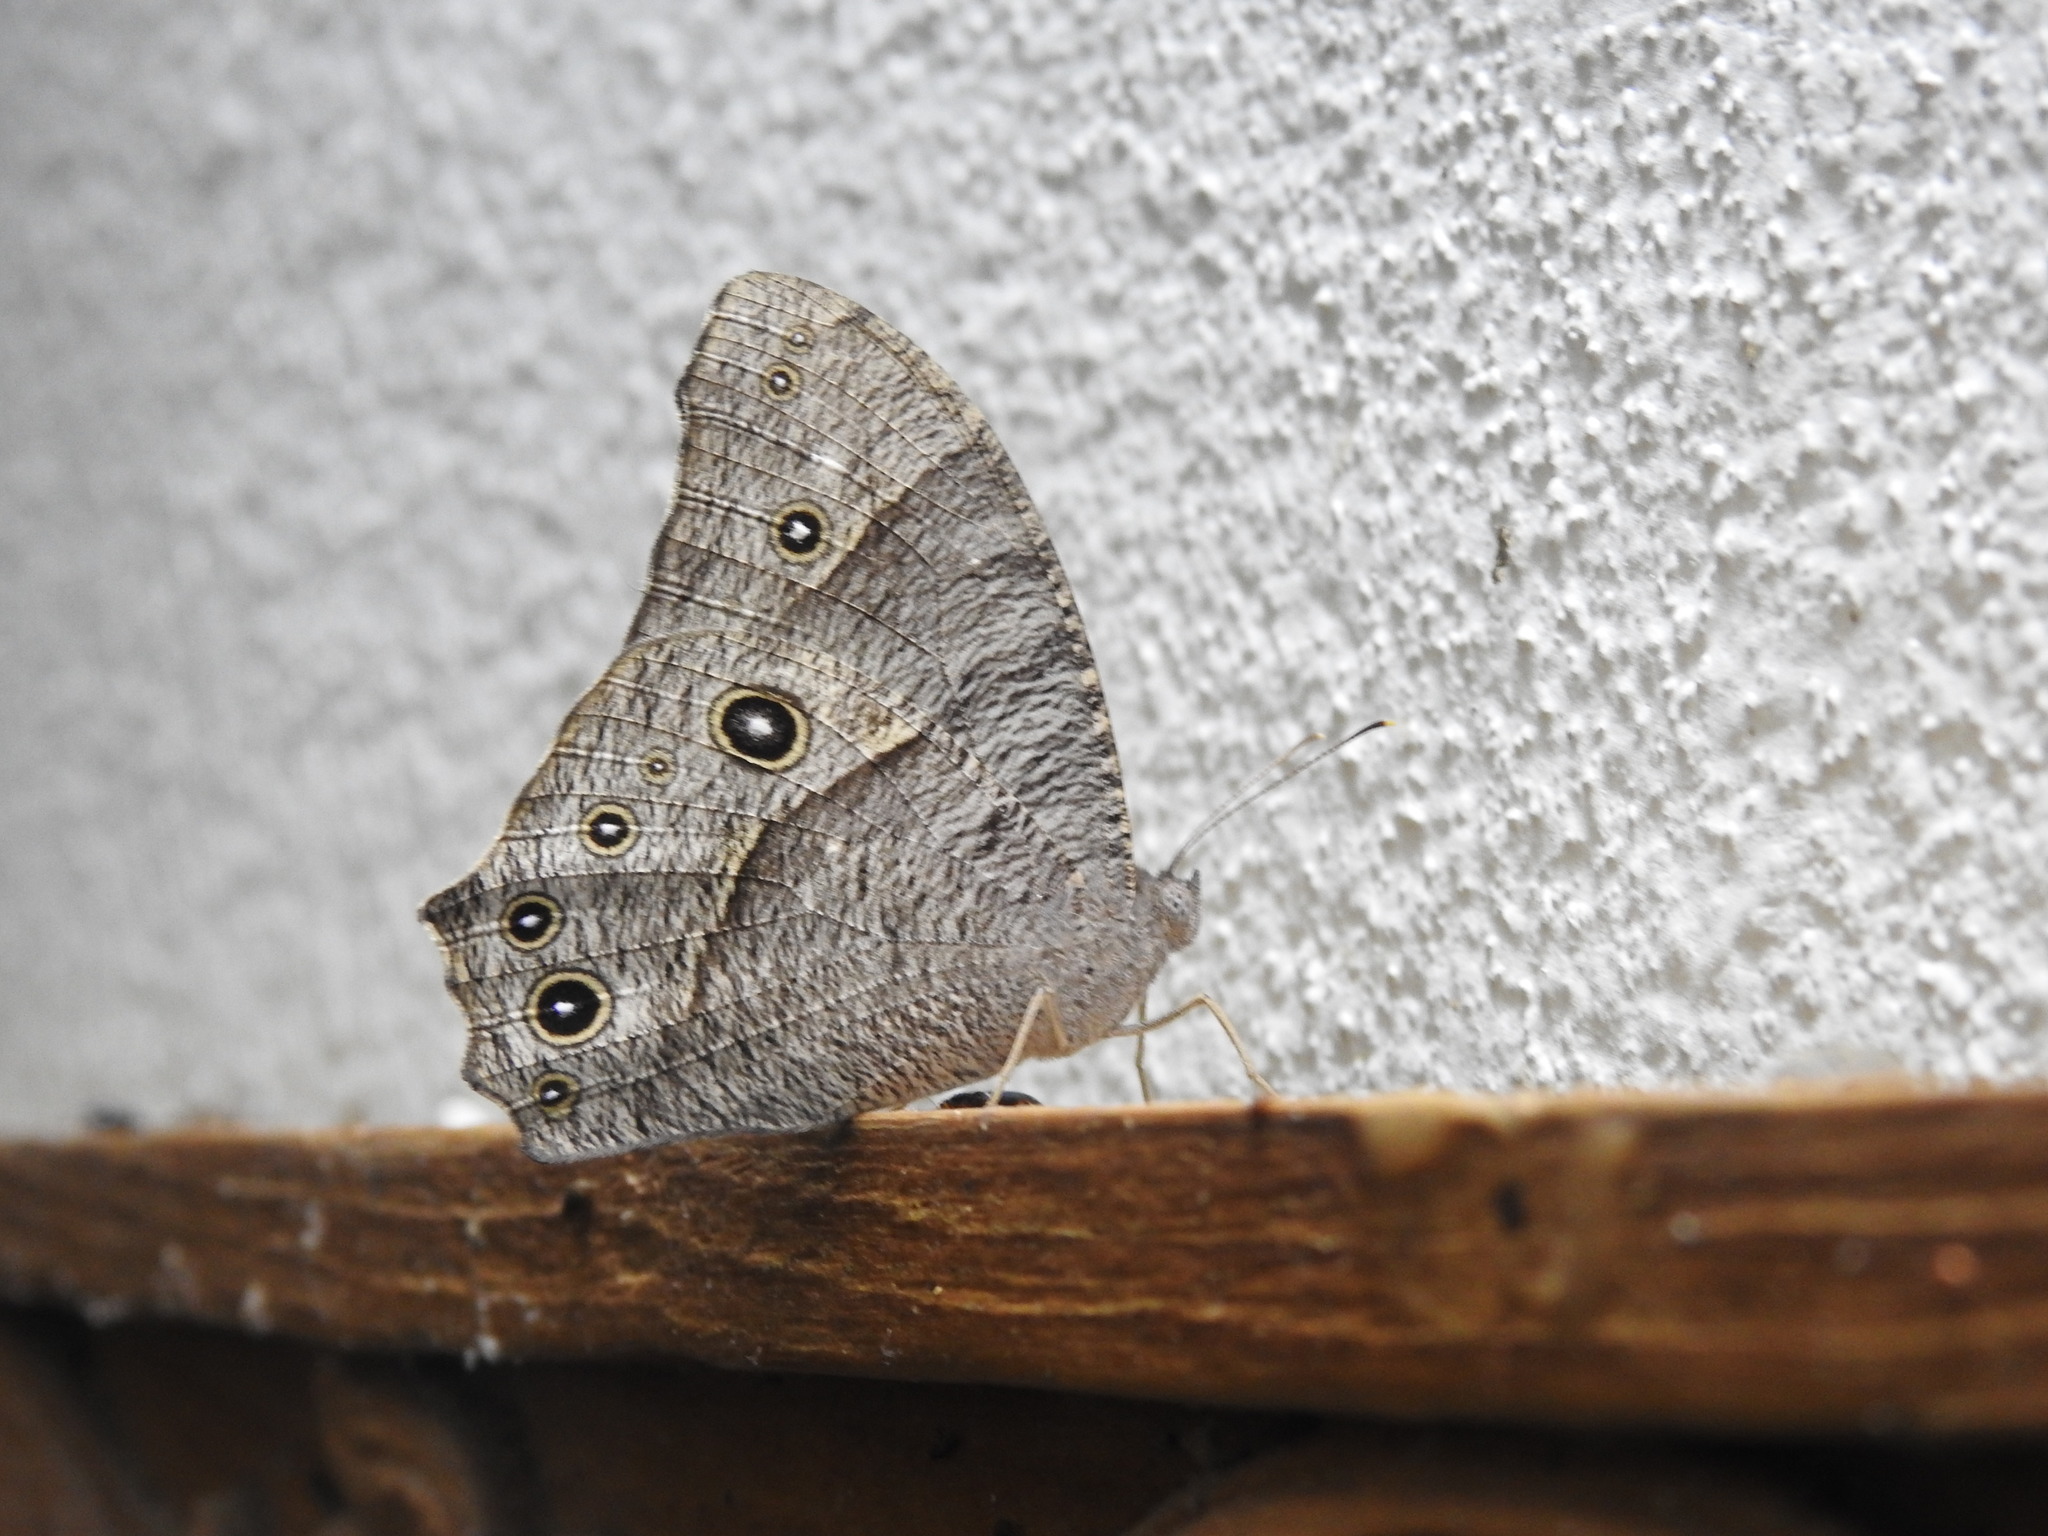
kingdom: Animalia
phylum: Arthropoda
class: Insecta
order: Lepidoptera
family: Nymphalidae
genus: Melanitis
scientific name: Melanitis leda
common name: Twilight brown
